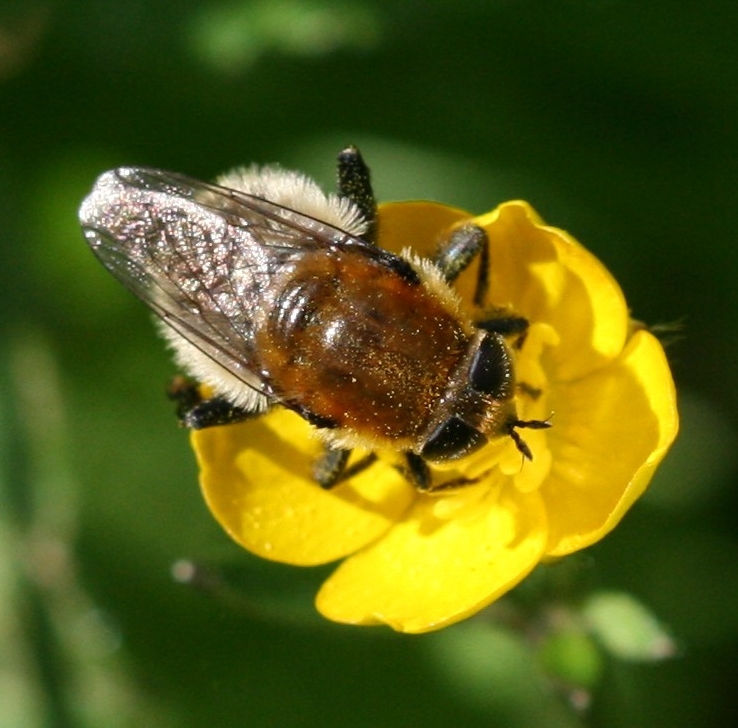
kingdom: Animalia
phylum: Arthropoda
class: Insecta
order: Diptera
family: Syrphidae
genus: Merodon
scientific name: Merodon equestris
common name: Greater bulb-fly
